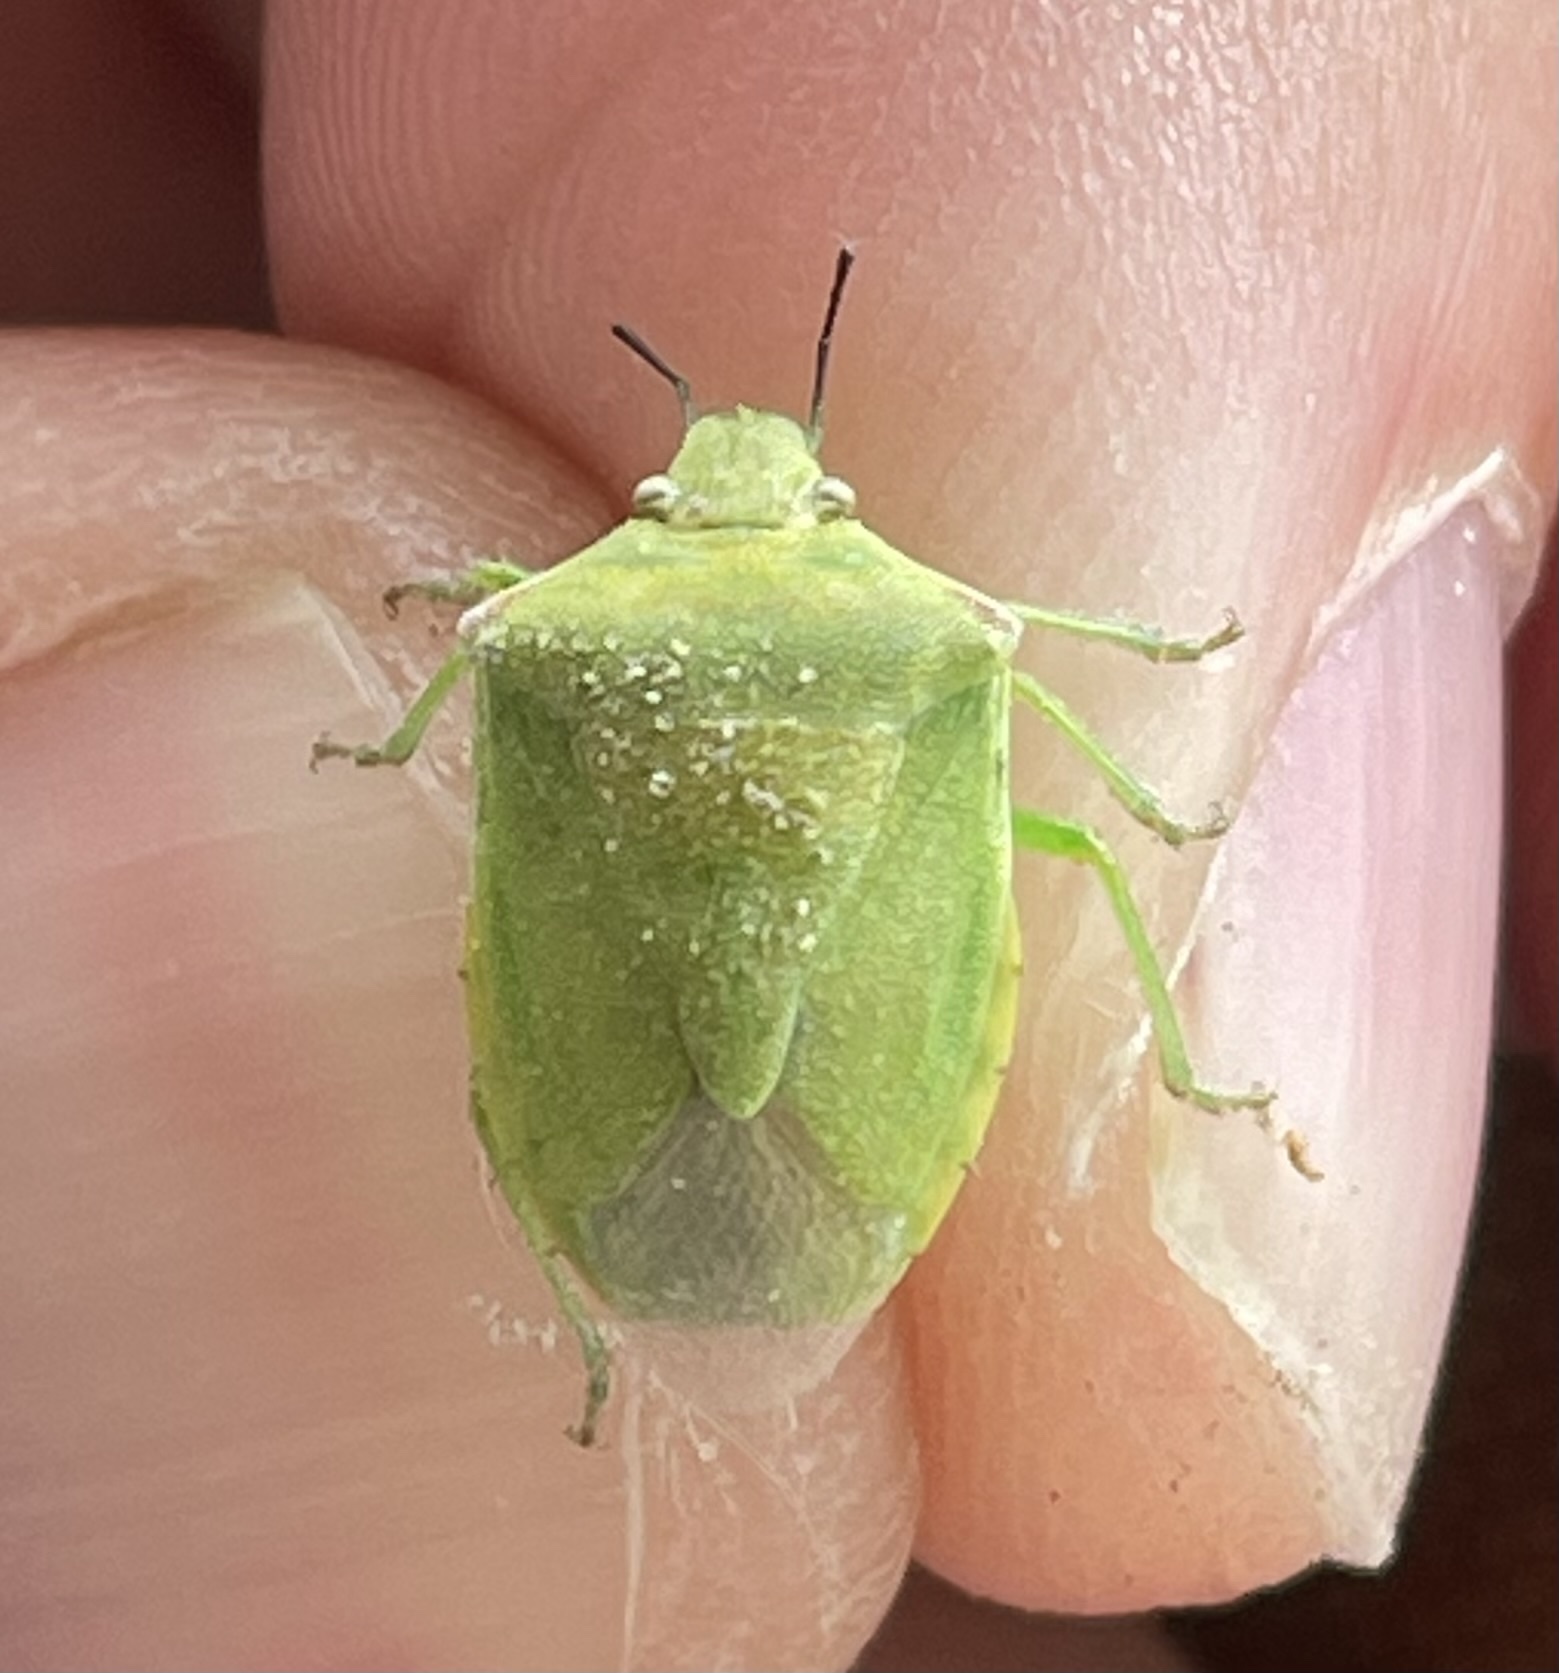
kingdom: Animalia
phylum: Arthropoda
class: Insecta
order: Hemiptera
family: Pentatomidae
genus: Thyanta
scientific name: Thyanta accerra
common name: Stink bug
